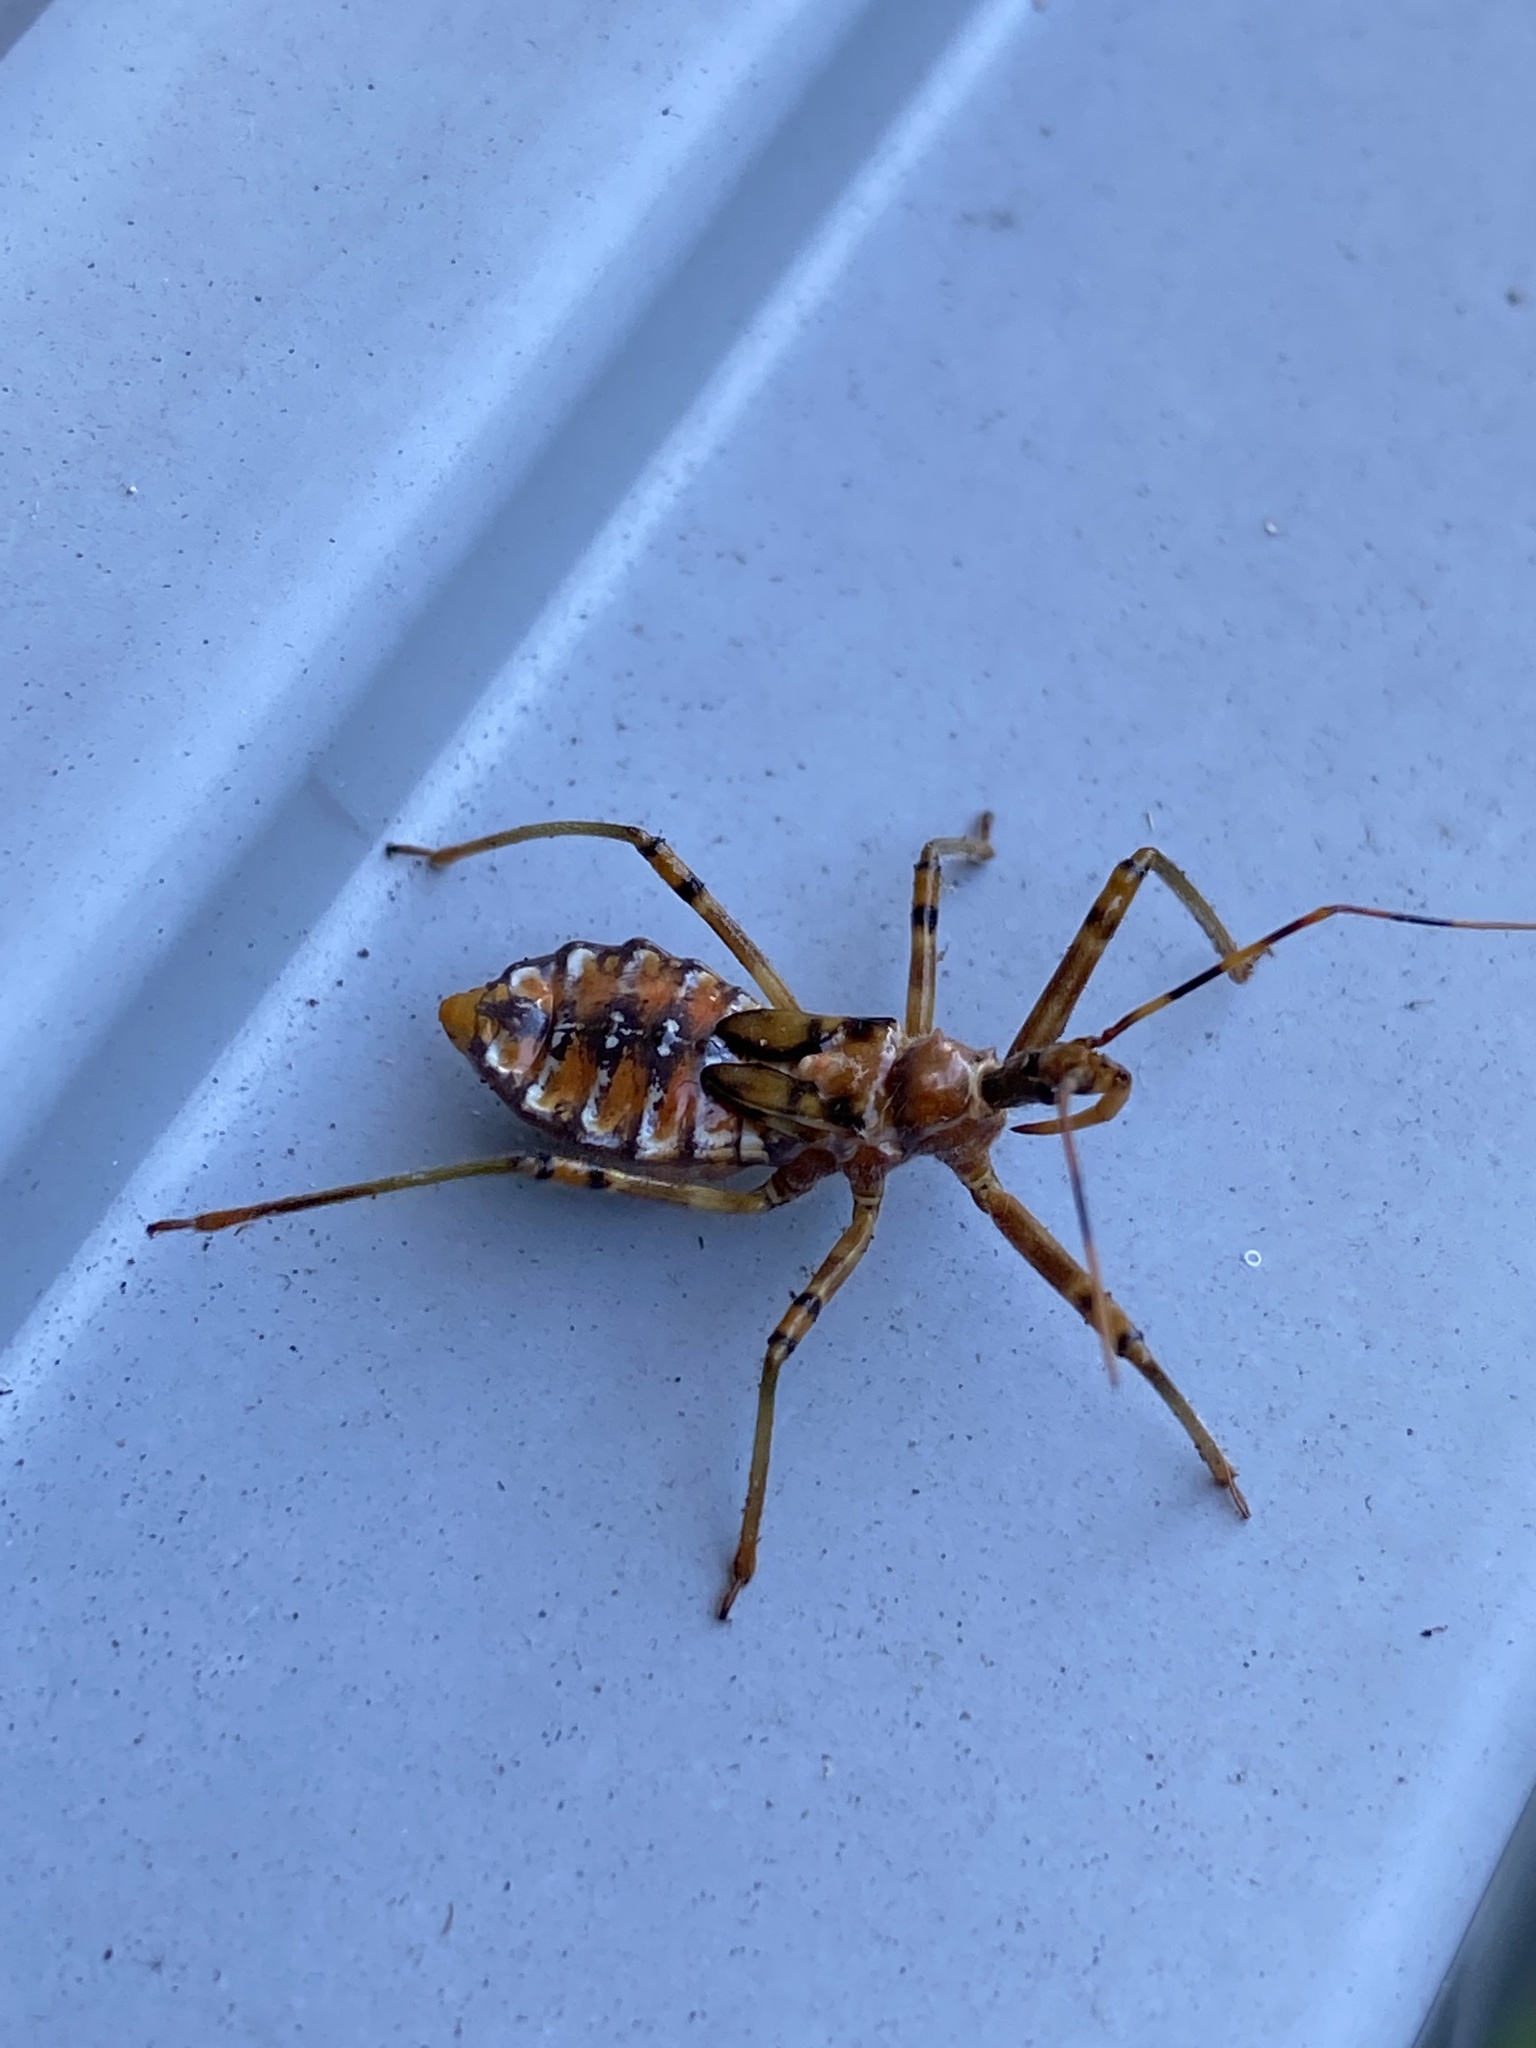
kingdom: Animalia
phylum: Arthropoda
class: Insecta
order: Hemiptera
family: Reduviidae
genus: Pristhesancus
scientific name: Pristhesancus plagipennis
